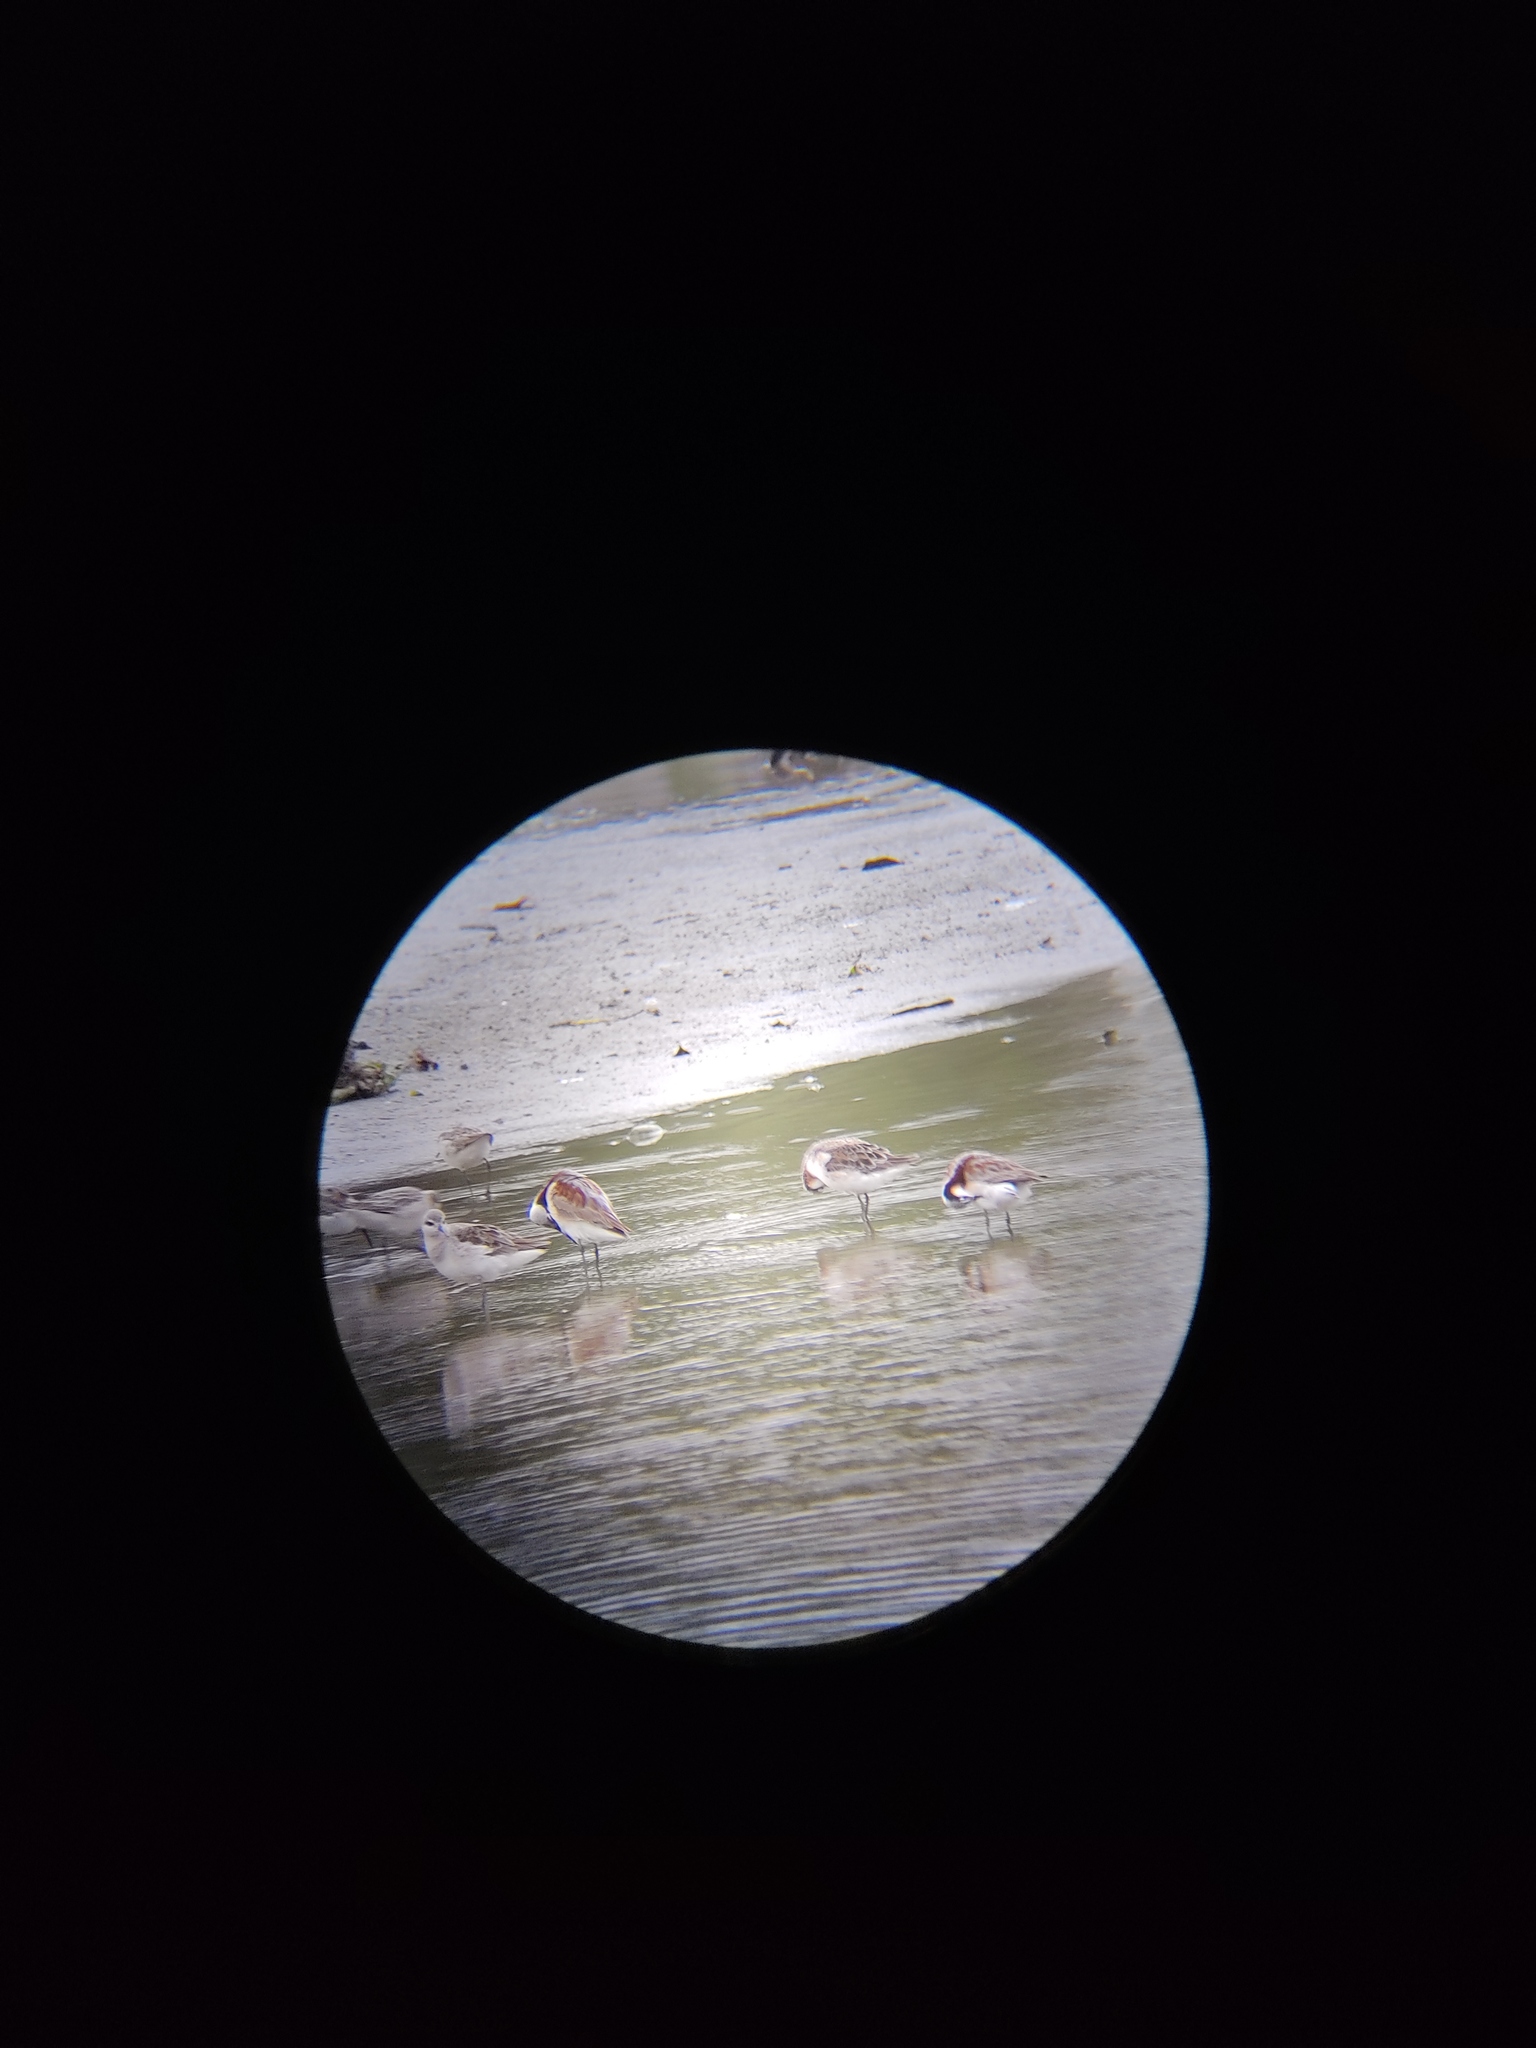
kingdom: Animalia
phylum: Chordata
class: Aves
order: Charadriiformes
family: Scolopacidae
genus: Phalaropus
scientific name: Phalaropus tricolor
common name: Wilson's phalarope
